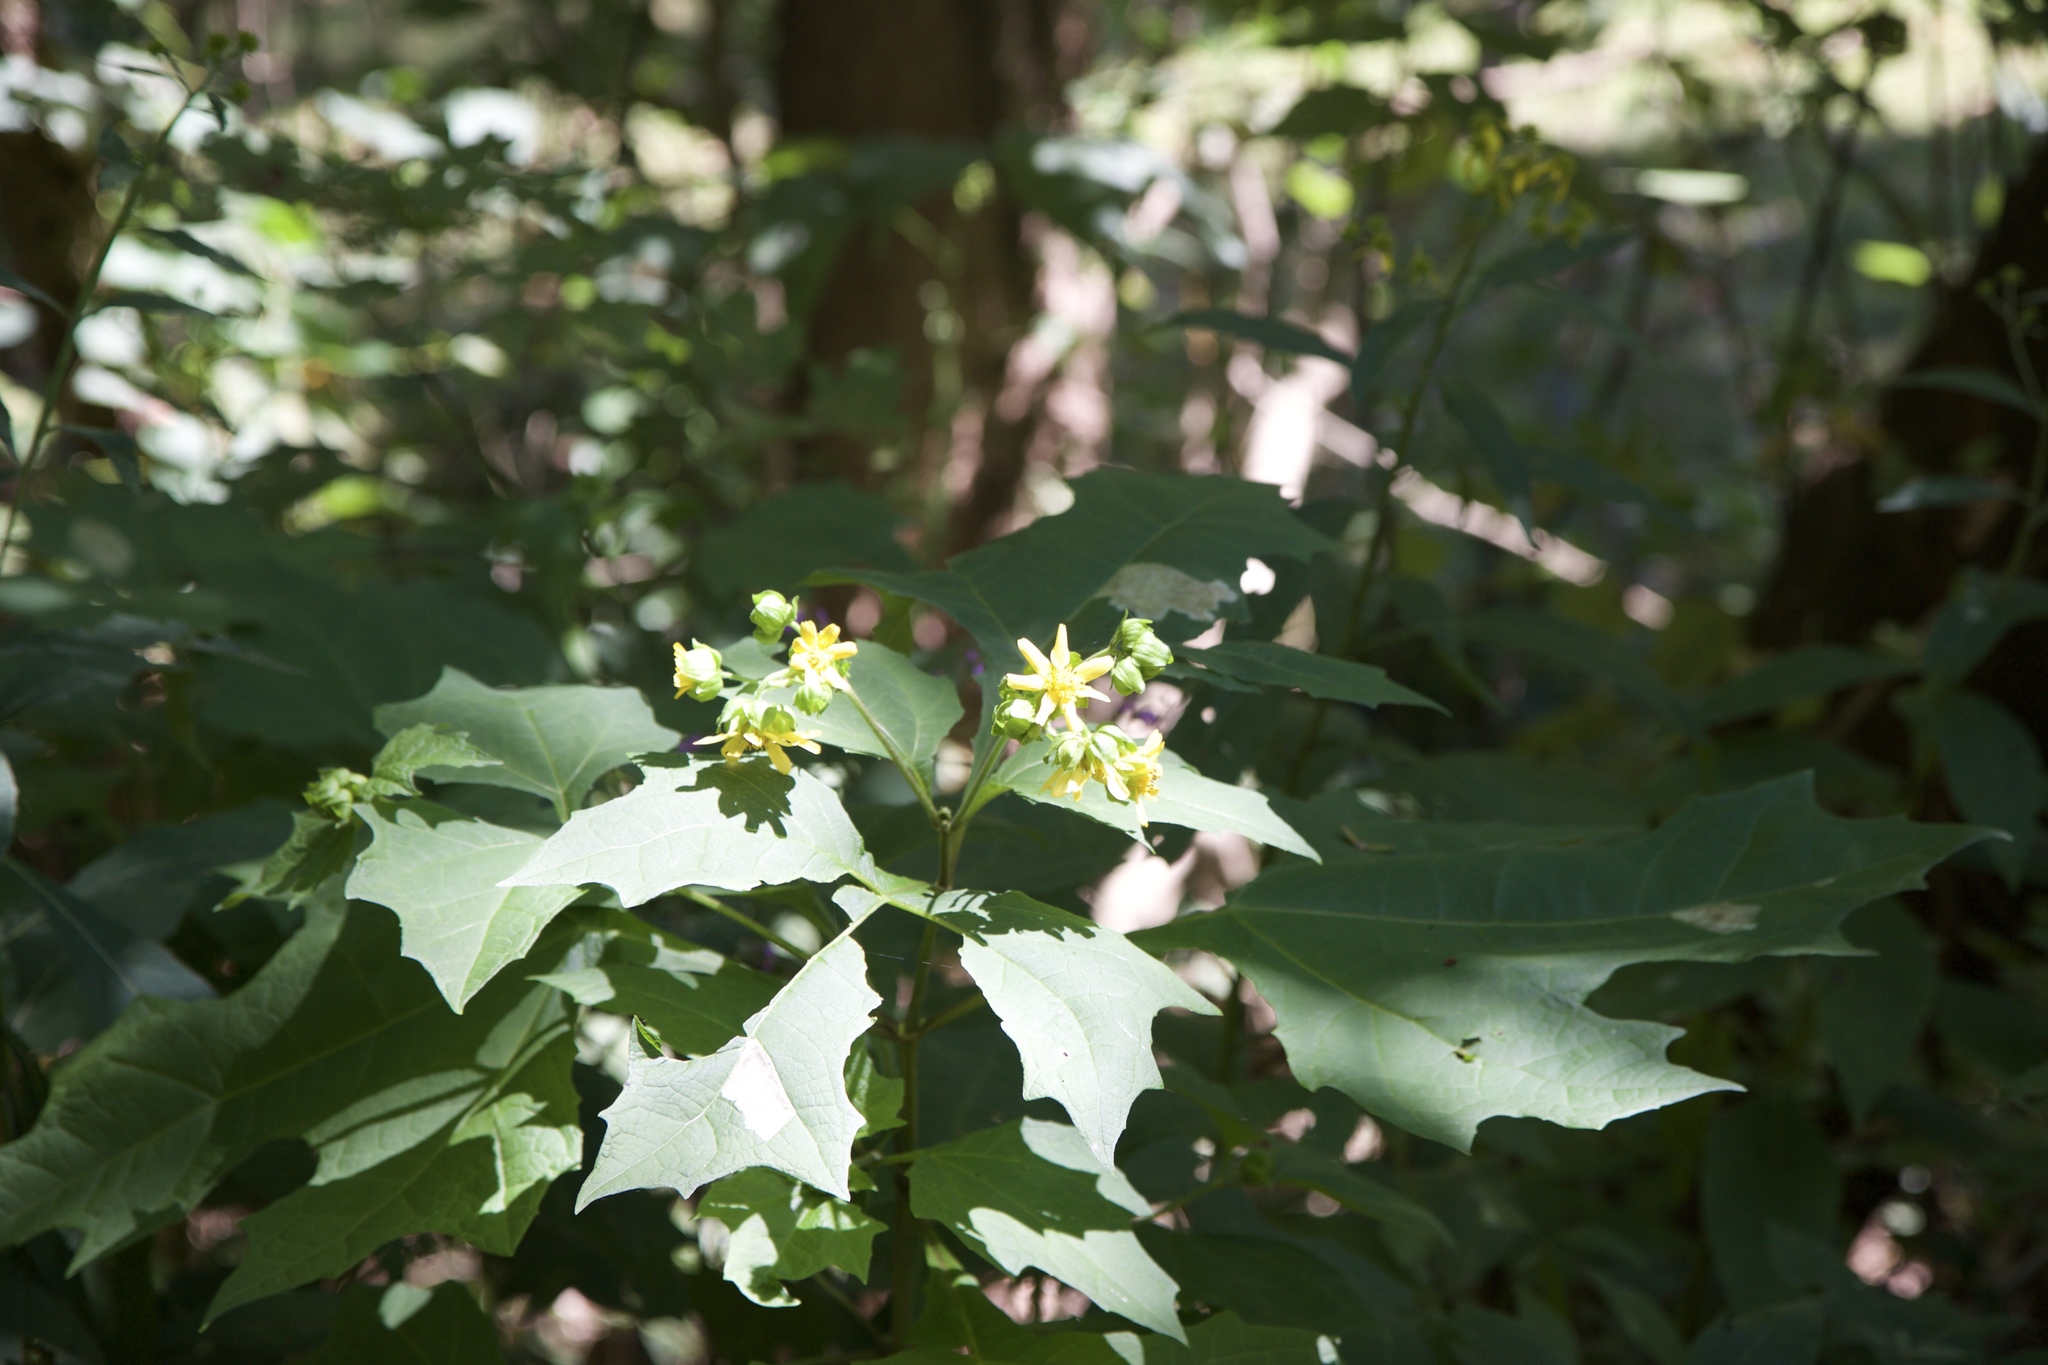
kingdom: Plantae
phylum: Tracheophyta
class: Magnoliopsida
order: Asterales
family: Asteraceae
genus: Smallanthus
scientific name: Smallanthus uvedalia
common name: Bear's-foot
